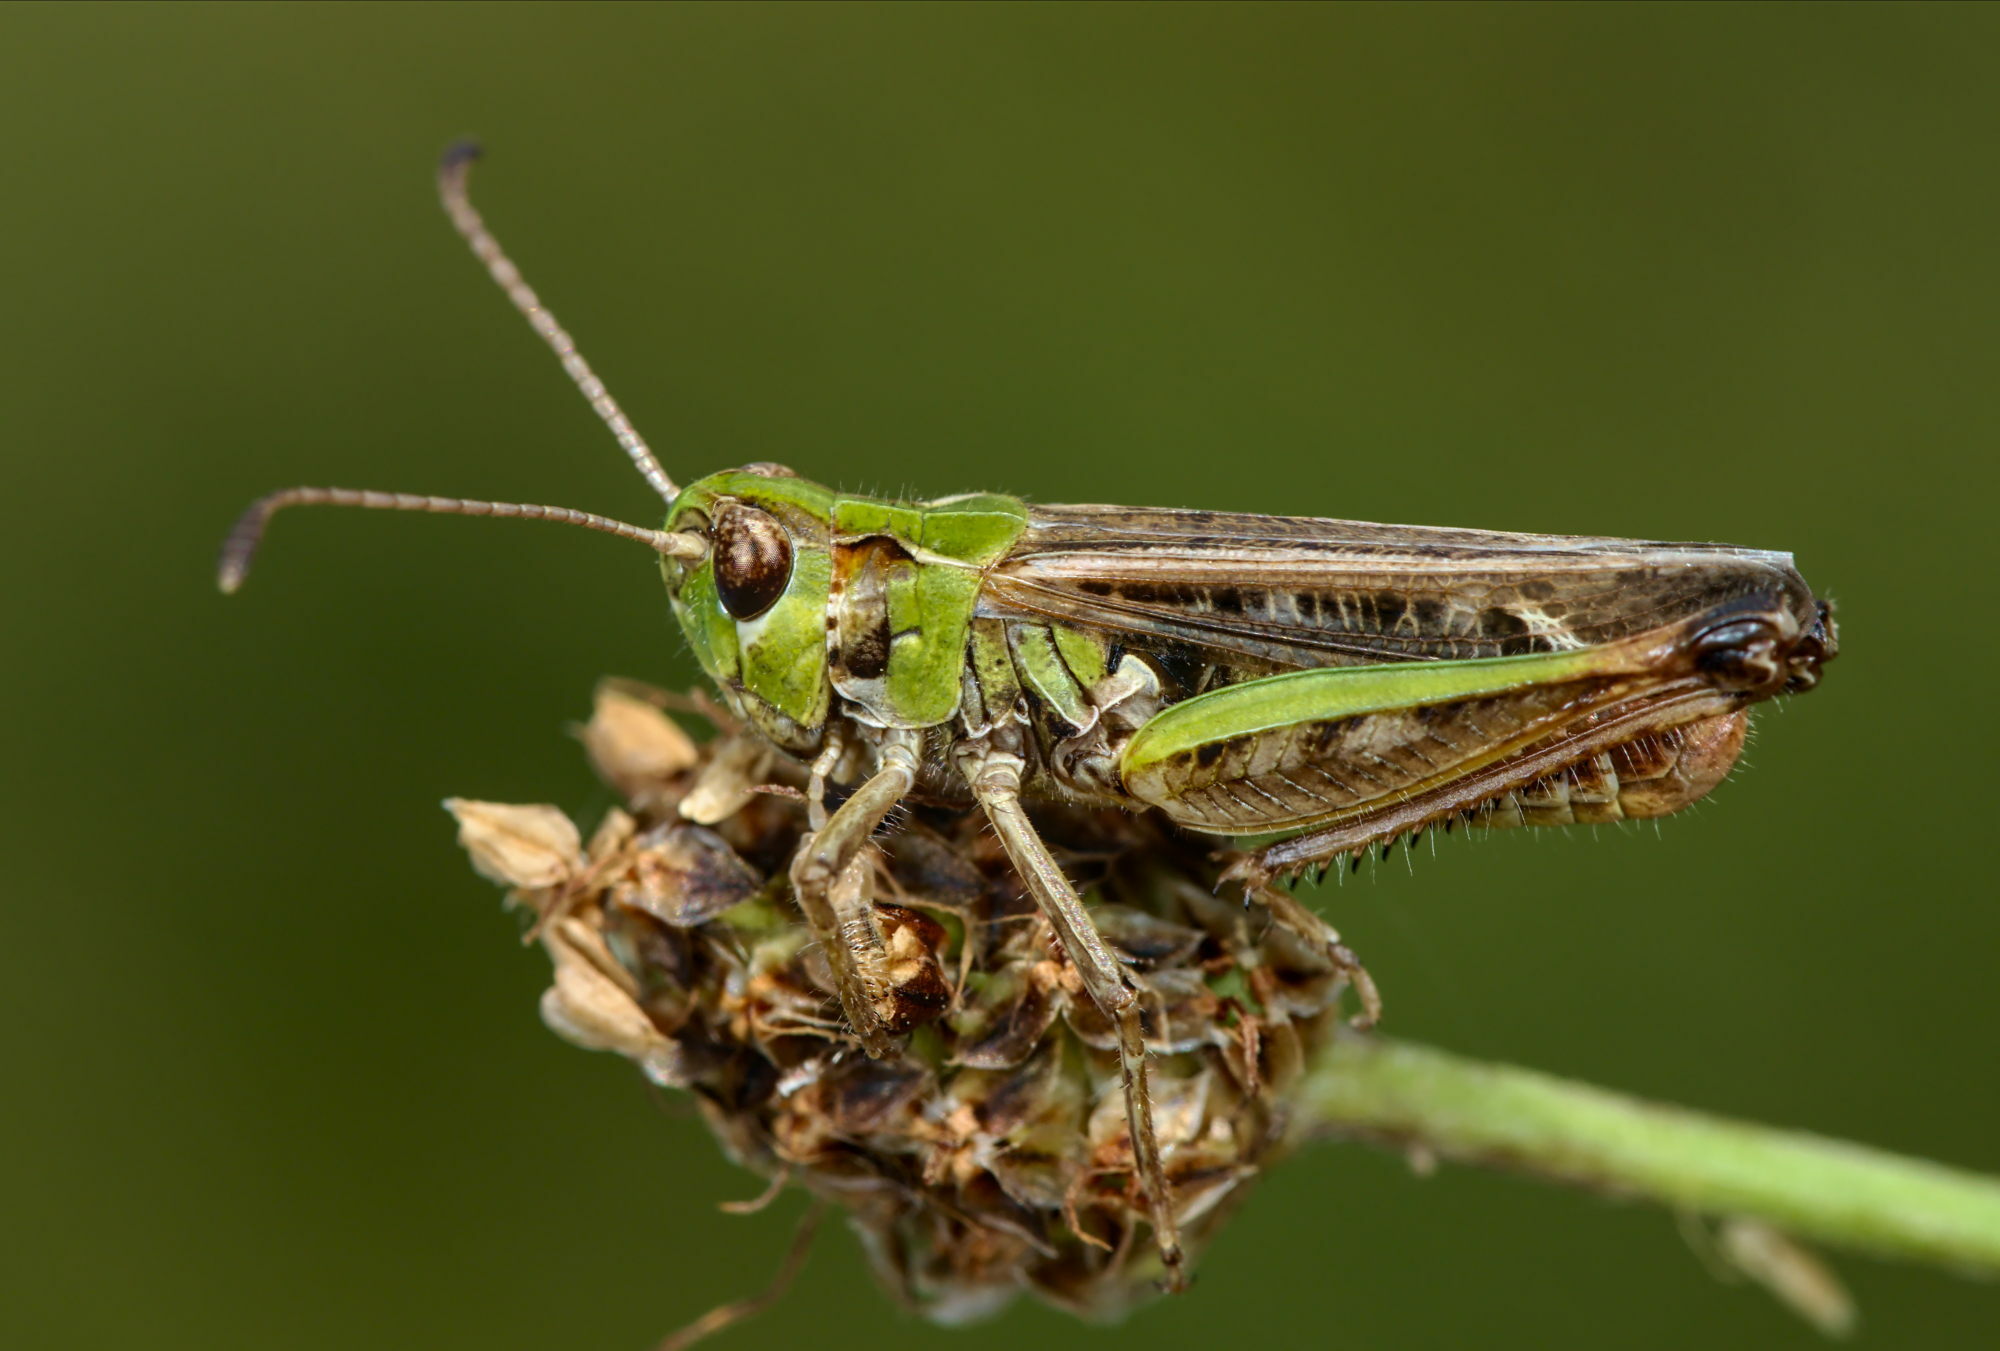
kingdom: Animalia
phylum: Arthropoda
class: Insecta
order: Orthoptera
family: Acrididae
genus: Myrmeleotettix
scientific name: Myrmeleotettix maculatus
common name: Mottled grasshopper
